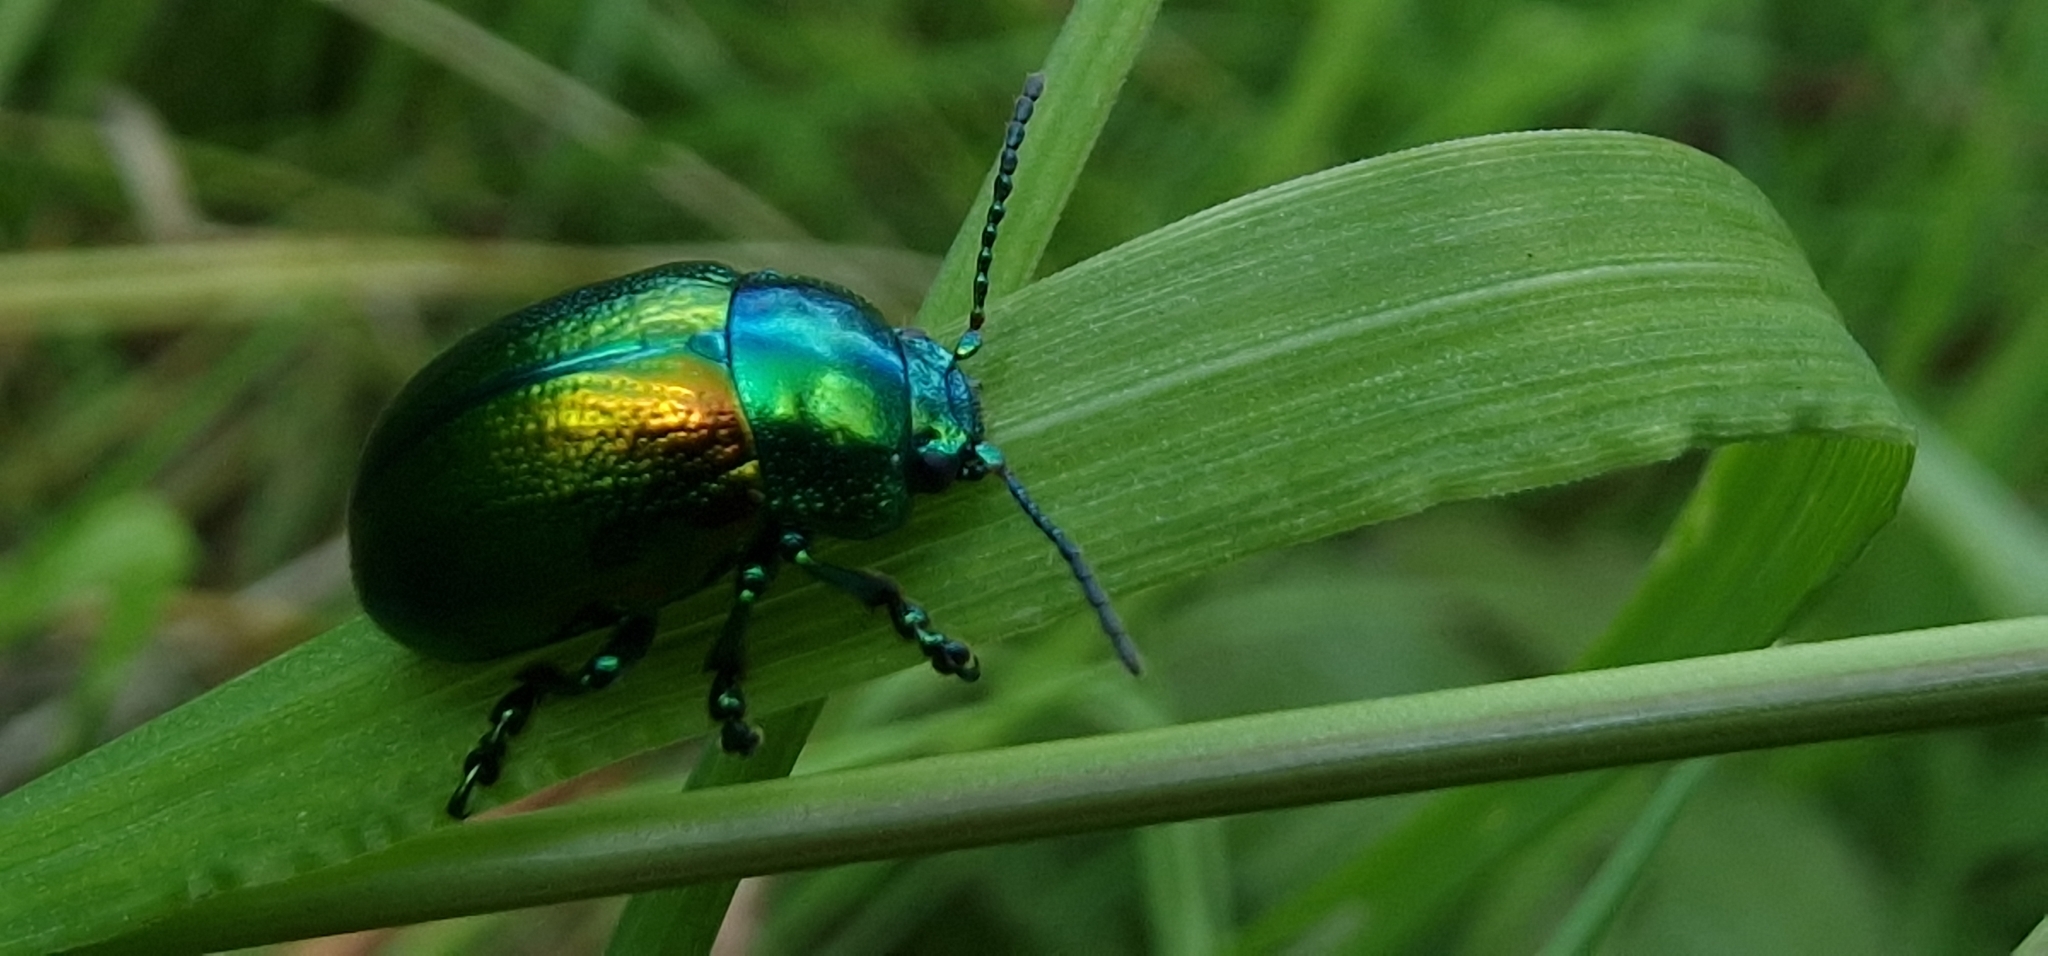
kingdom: Animalia
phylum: Arthropoda
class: Insecta
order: Coleoptera
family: Chrysomelidae
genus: Chrysolina
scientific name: Chrysolina graminis
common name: Tansey beetle
